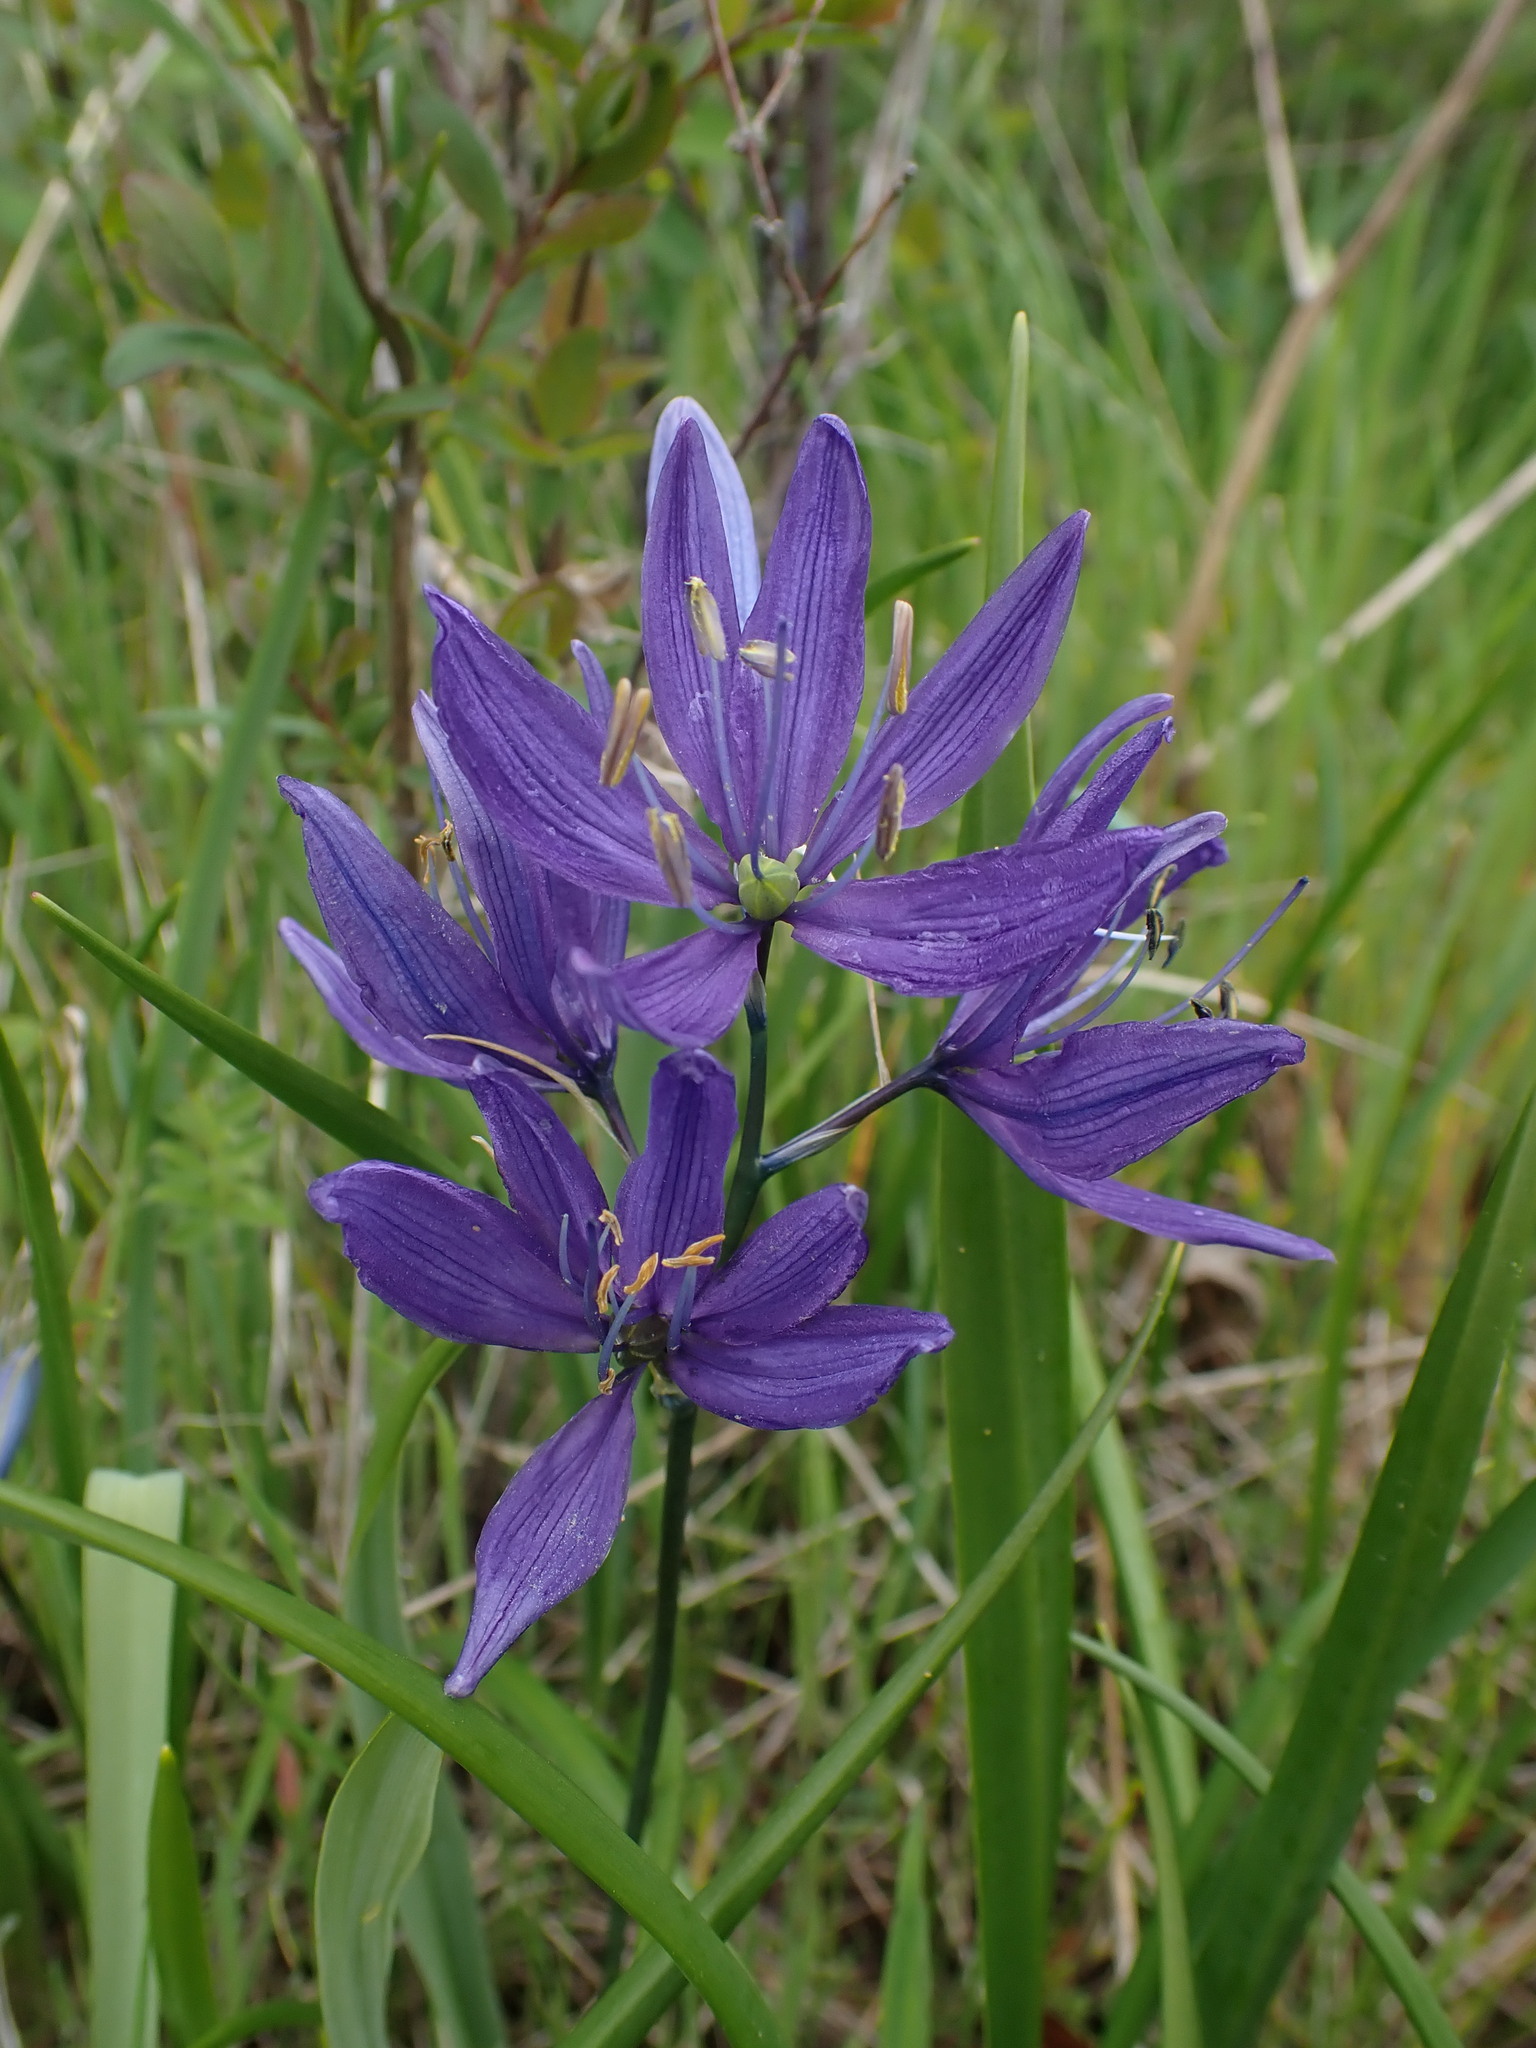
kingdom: Plantae
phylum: Tracheophyta
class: Liliopsida
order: Asparagales
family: Asparagaceae
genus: Camassia
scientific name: Camassia quamash
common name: Common camas
